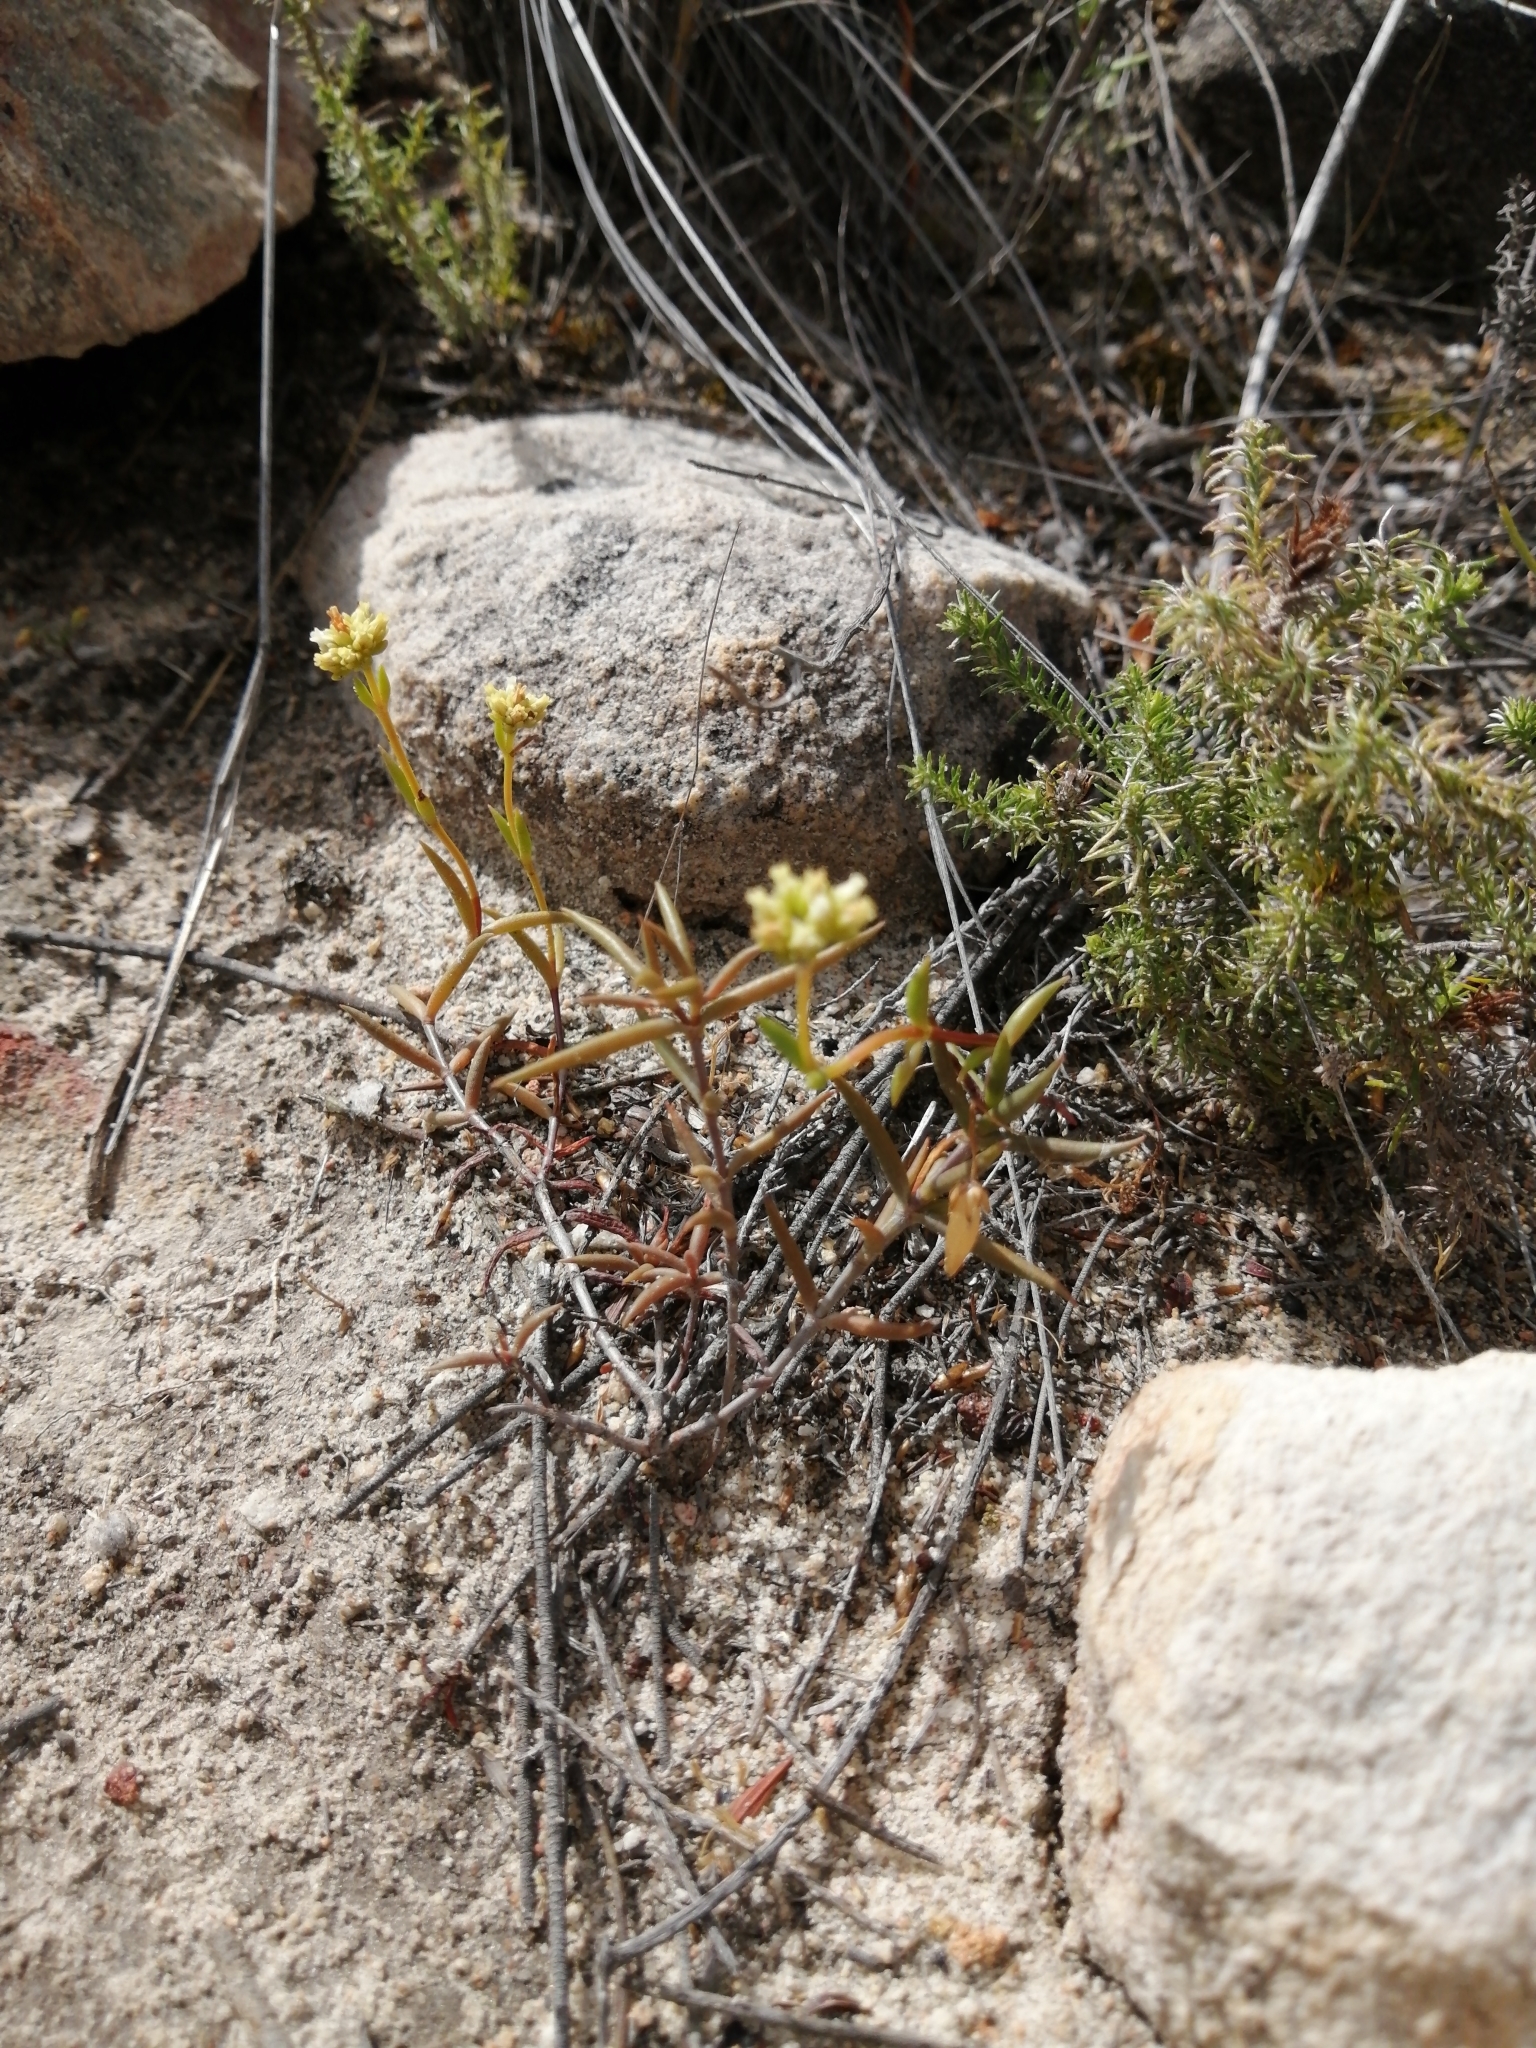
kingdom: Plantae
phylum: Tracheophyta
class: Magnoliopsida
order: Saxifragales
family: Crassulaceae
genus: Crassula
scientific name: Crassula subulata
